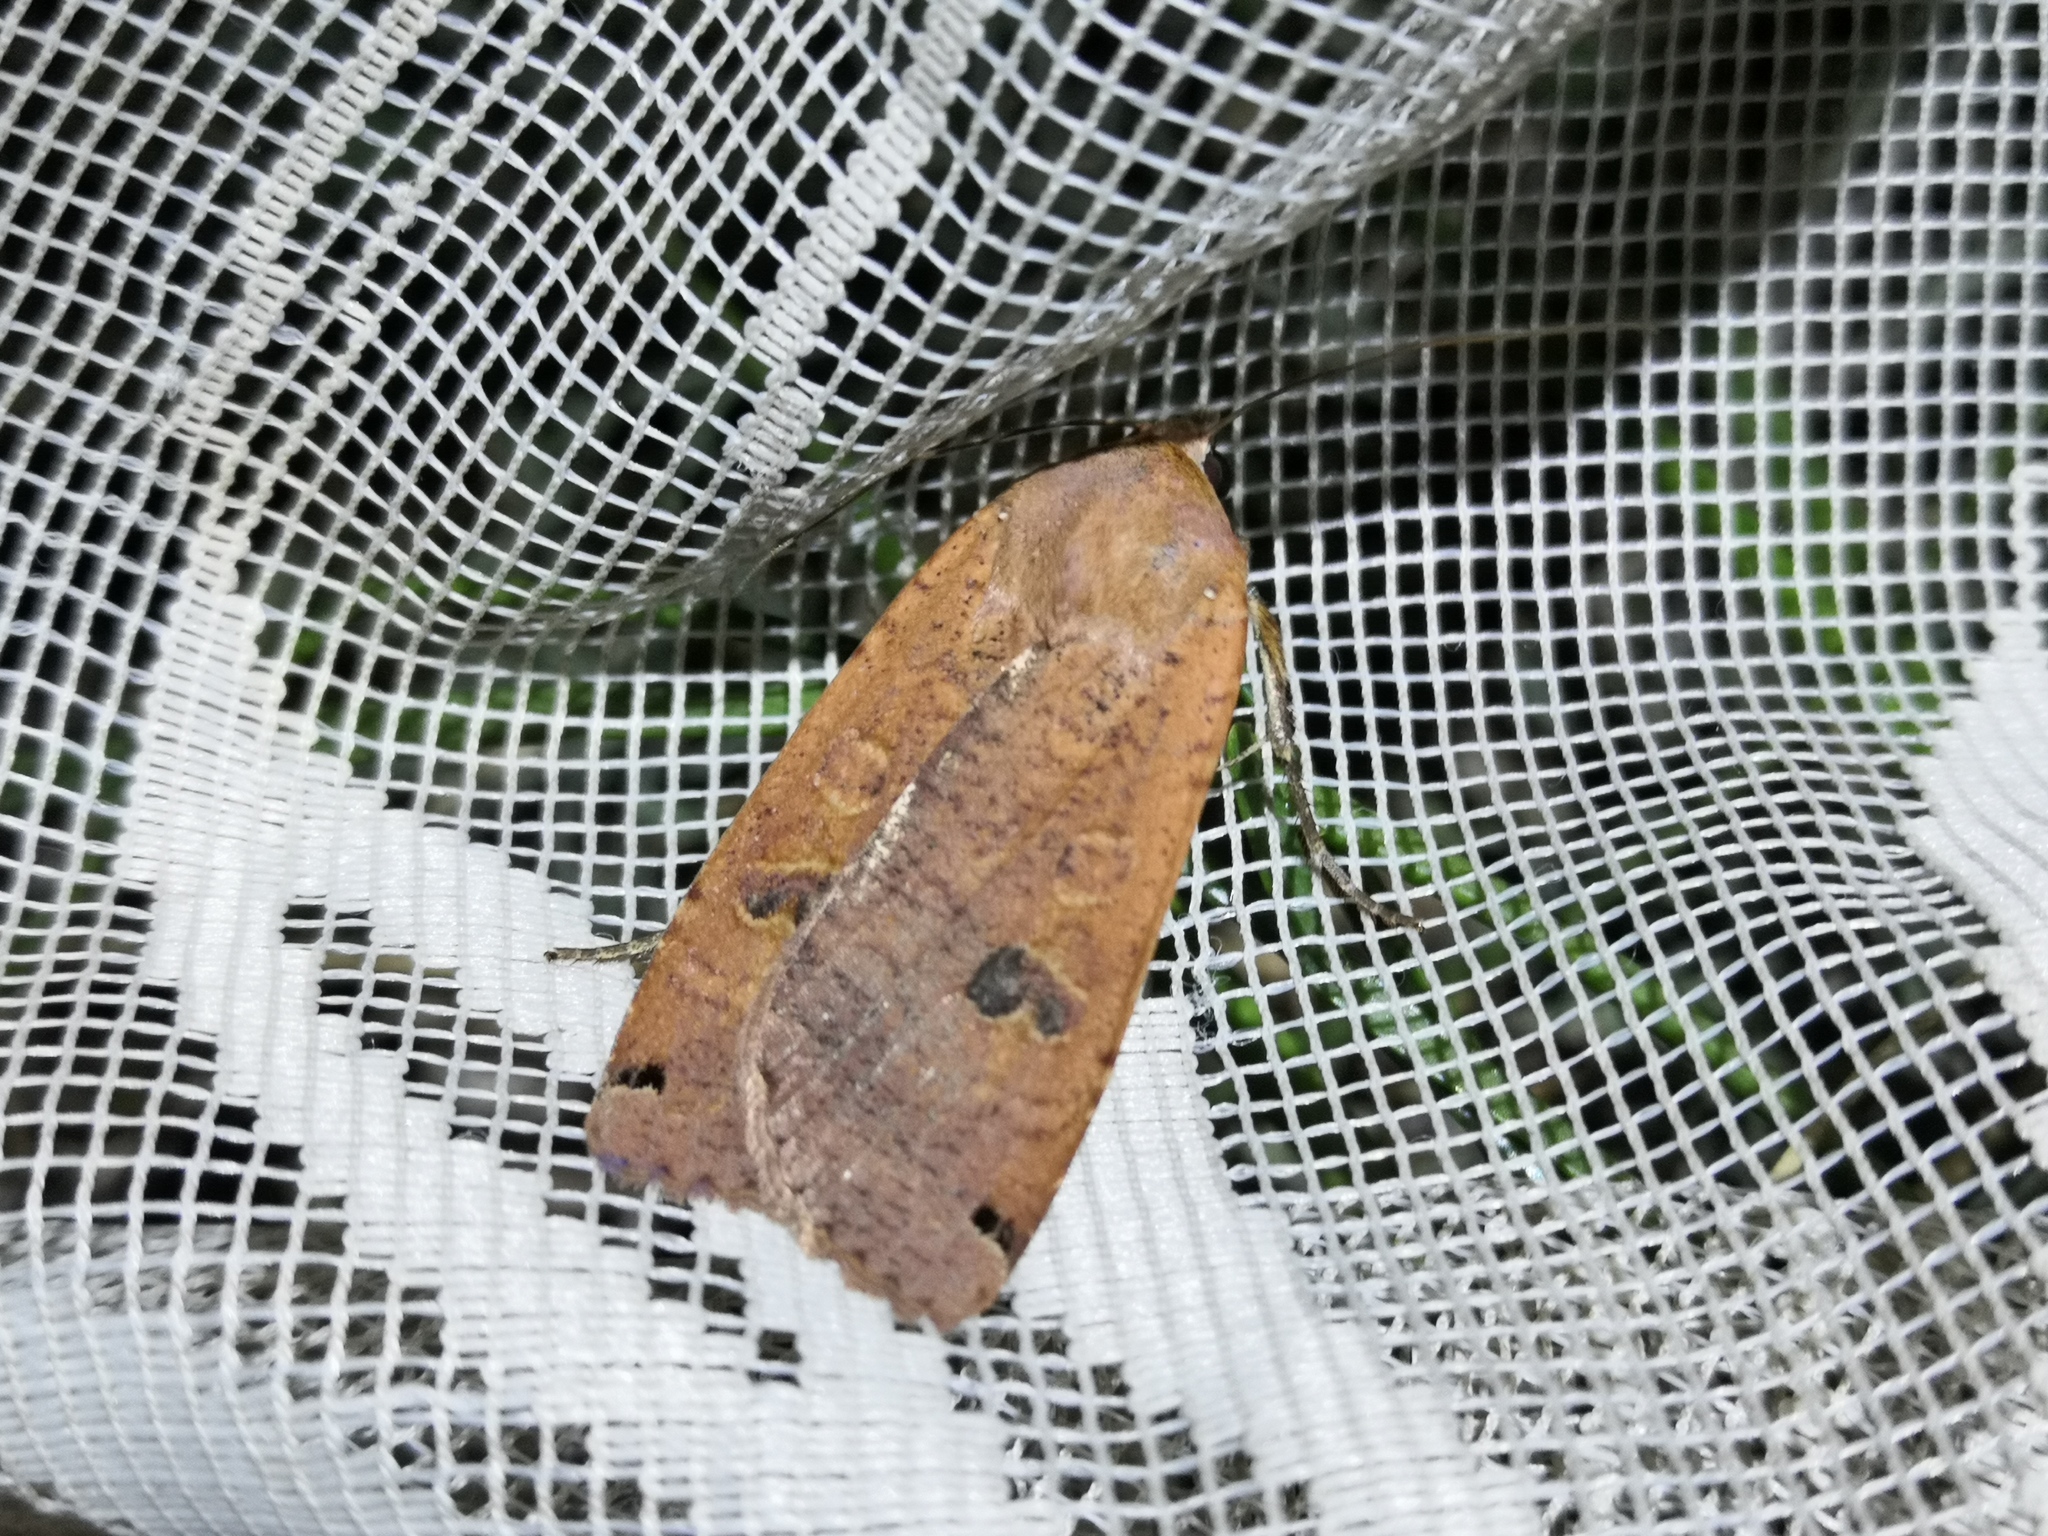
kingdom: Animalia
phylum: Arthropoda
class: Insecta
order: Lepidoptera
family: Noctuidae
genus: Noctua
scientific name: Noctua pronuba
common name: Large yellow underwing
